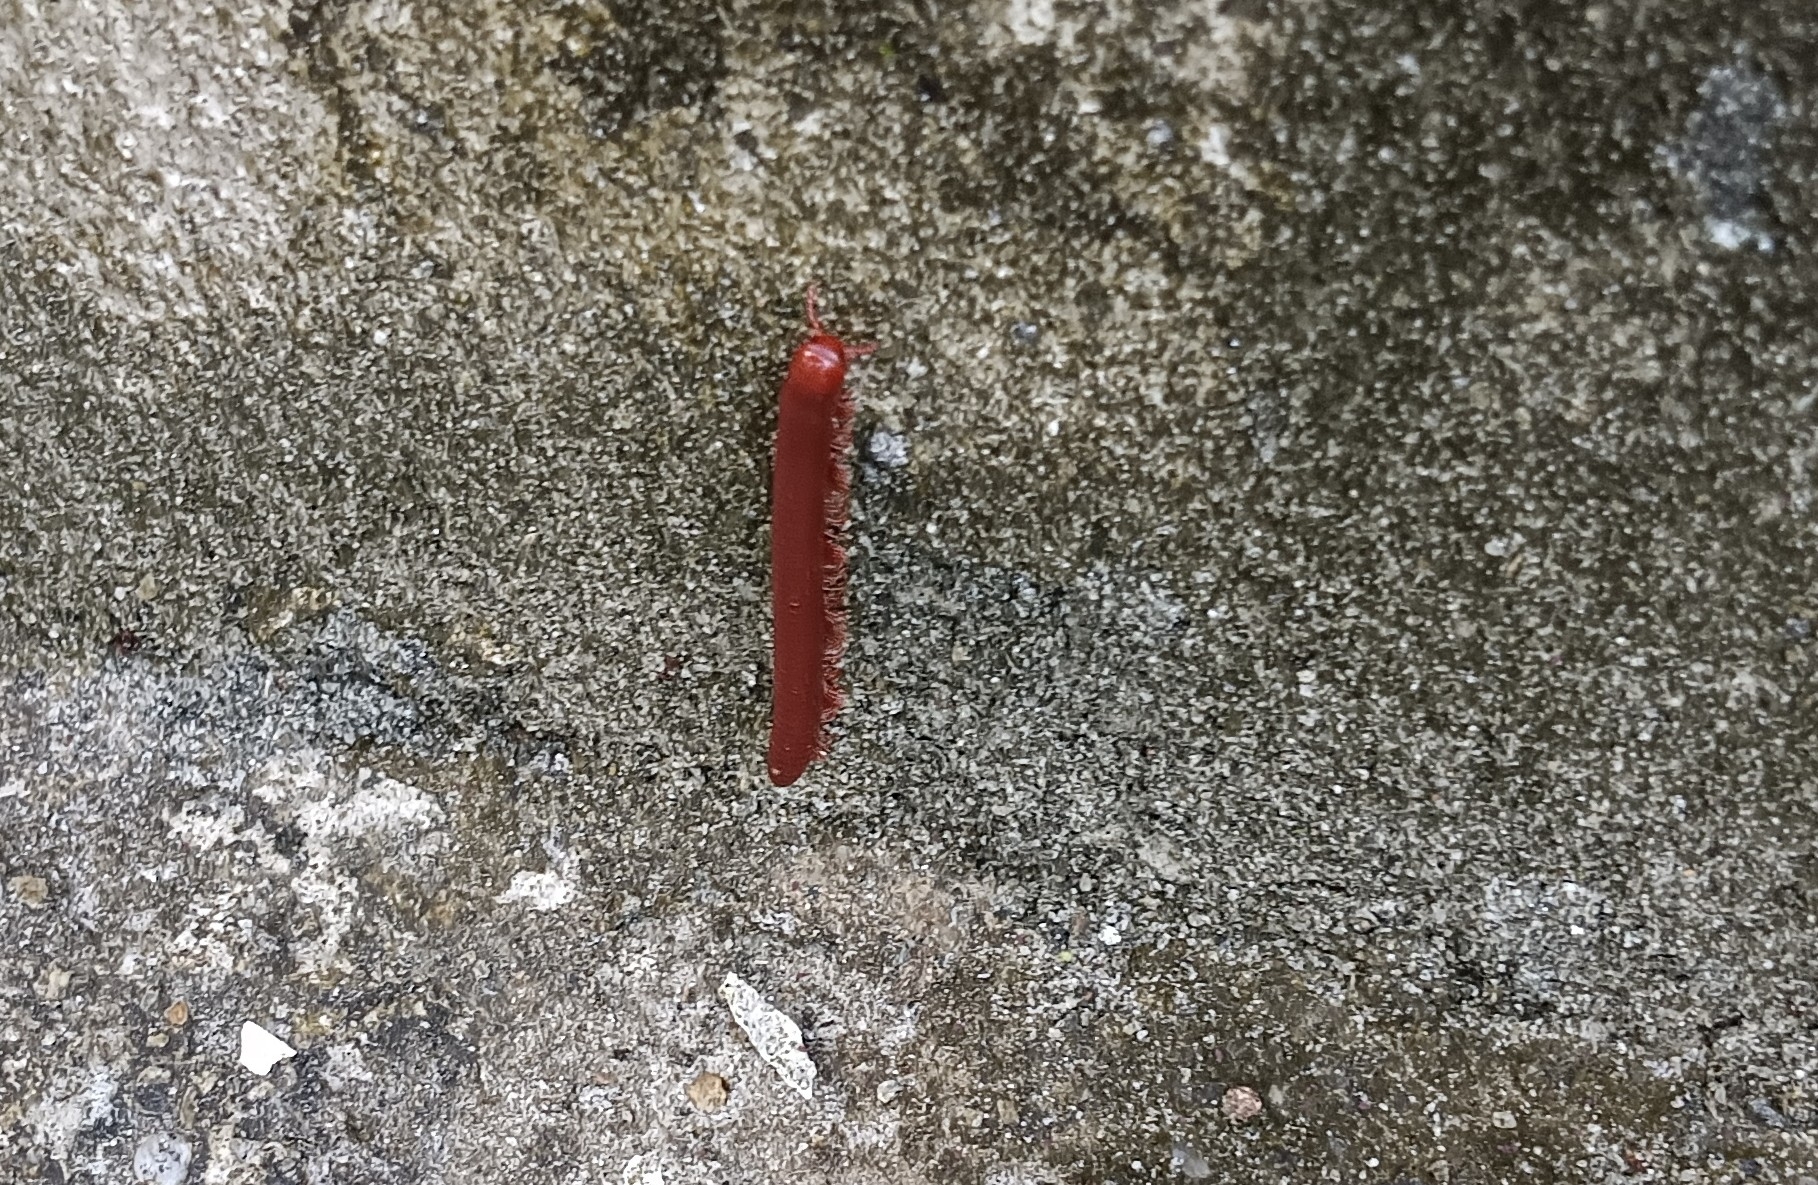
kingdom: Animalia
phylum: Arthropoda
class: Diplopoda
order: Spirobolida
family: Pachybolidae
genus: Trigoniulus
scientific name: Trigoniulus corallinus
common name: Millipede
